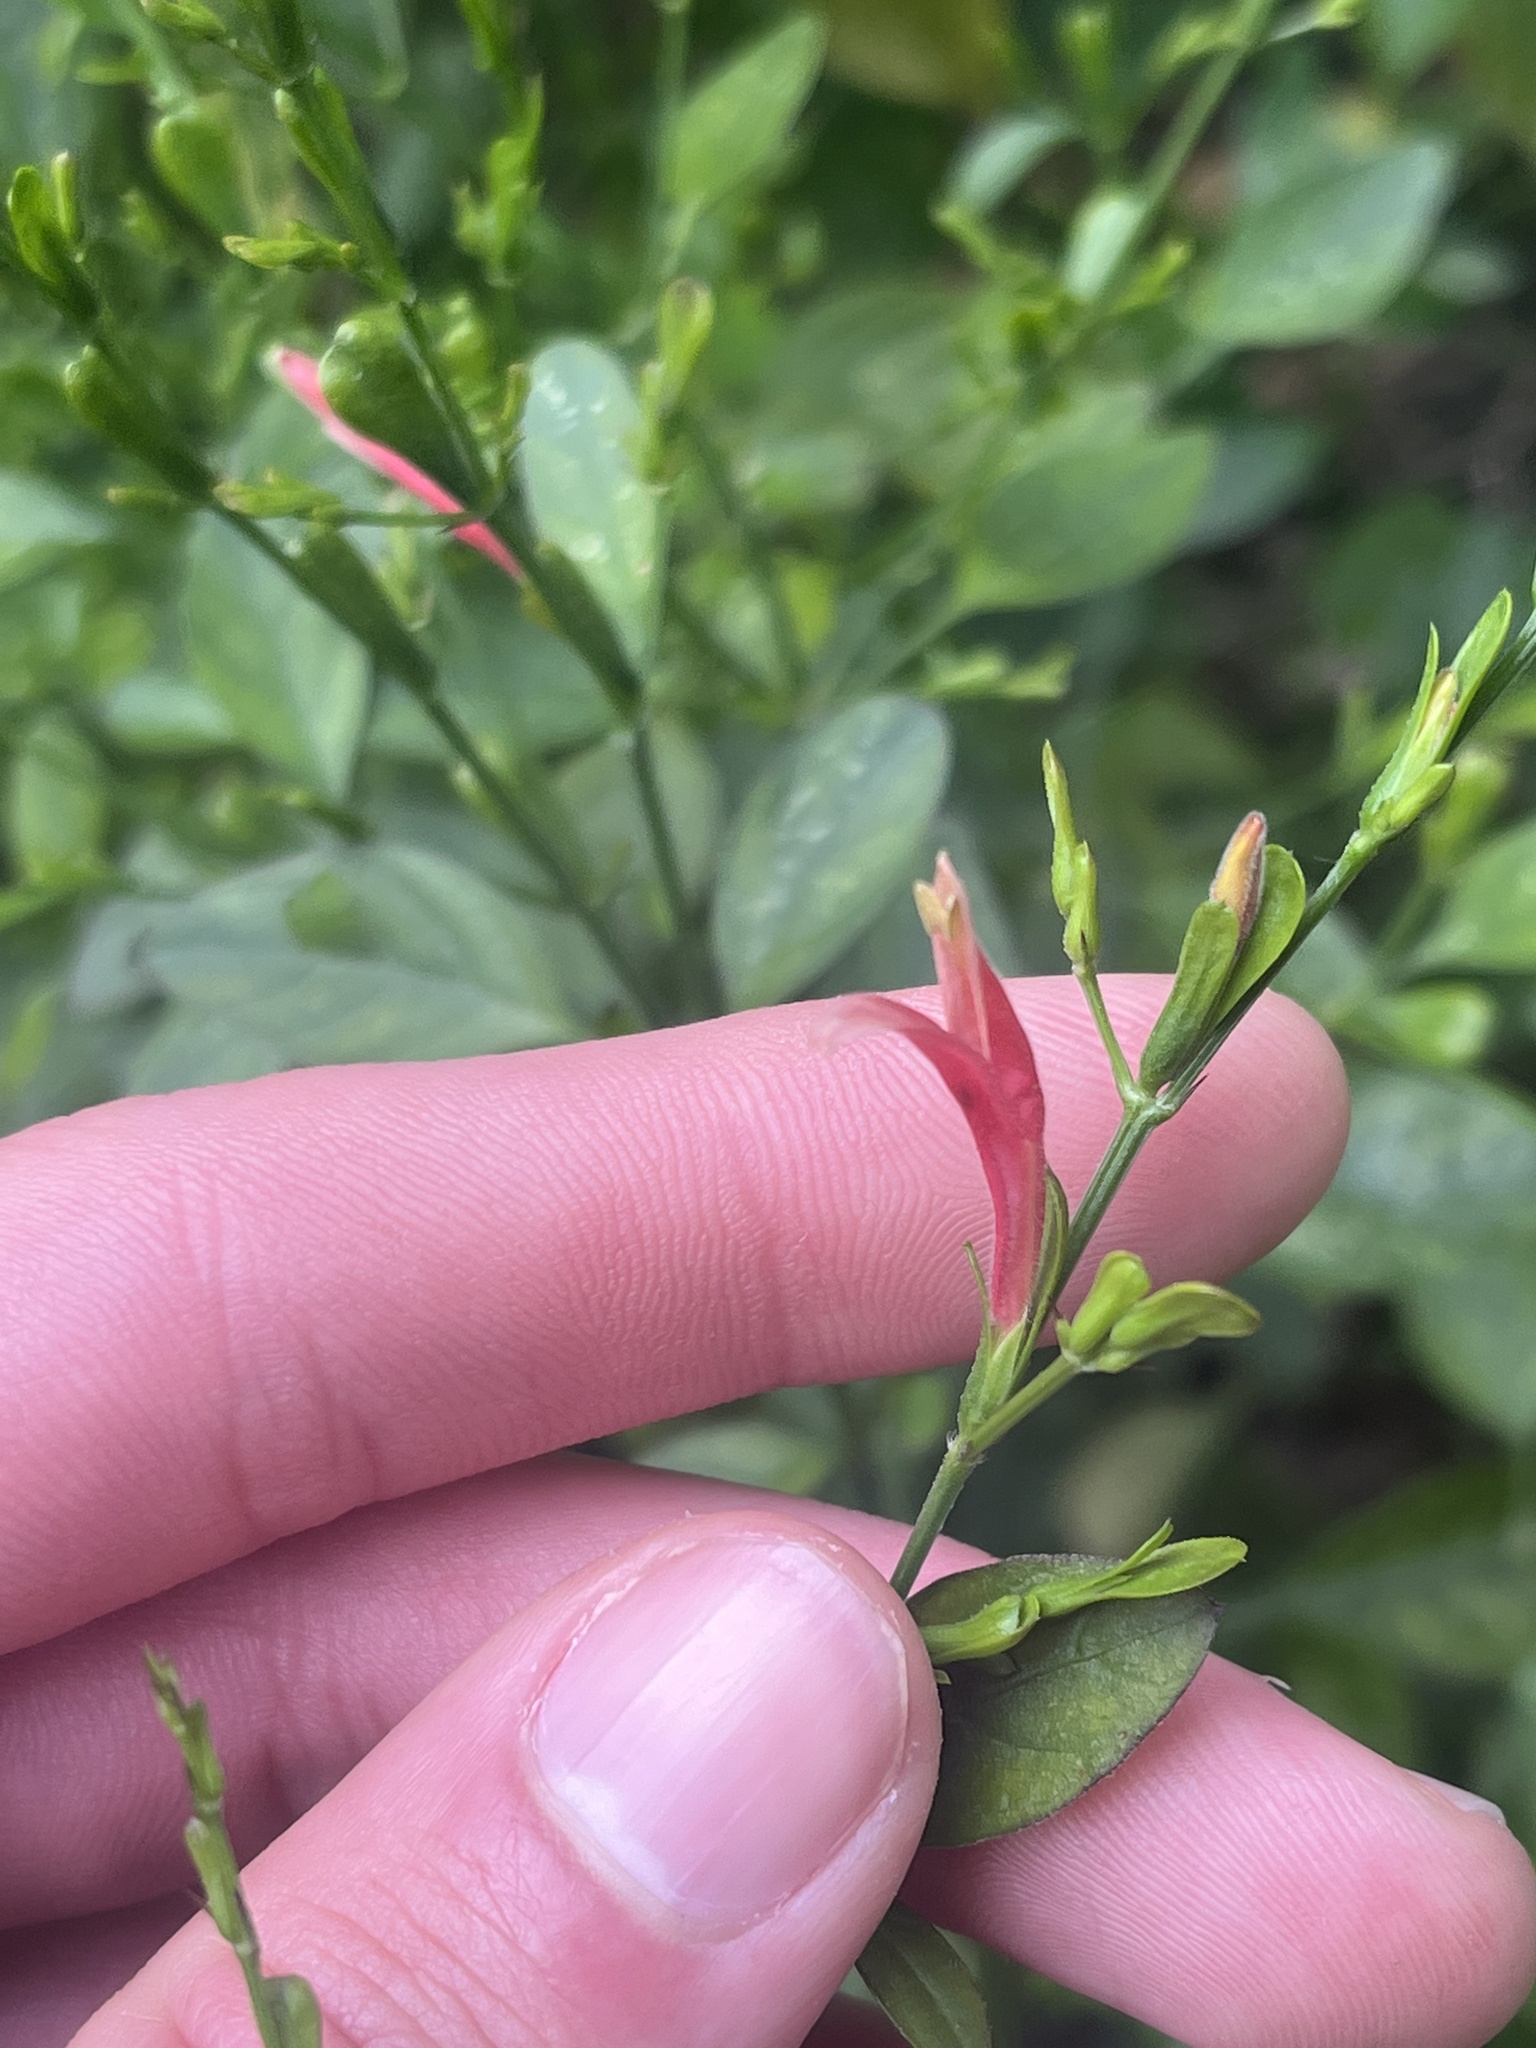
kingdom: Plantae
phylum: Tracheophyta
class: Magnoliopsida
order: Lamiales
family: Acanthaceae
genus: Dicliptera
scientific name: Dicliptera sexangularis
